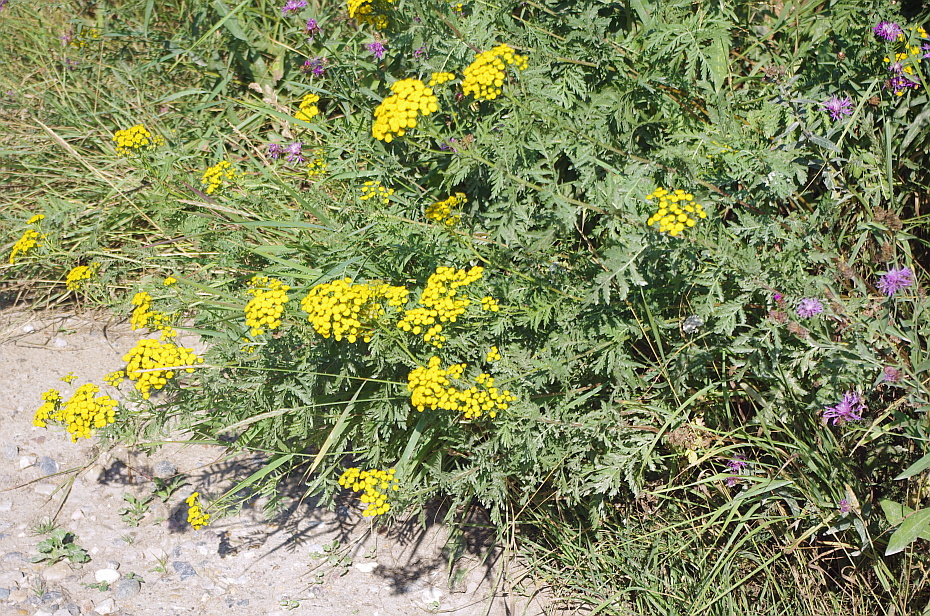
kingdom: Plantae
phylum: Tracheophyta
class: Magnoliopsida
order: Asterales
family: Asteraceae
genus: Tanacetum
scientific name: Tanacetum vulgare
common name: Common tansy
